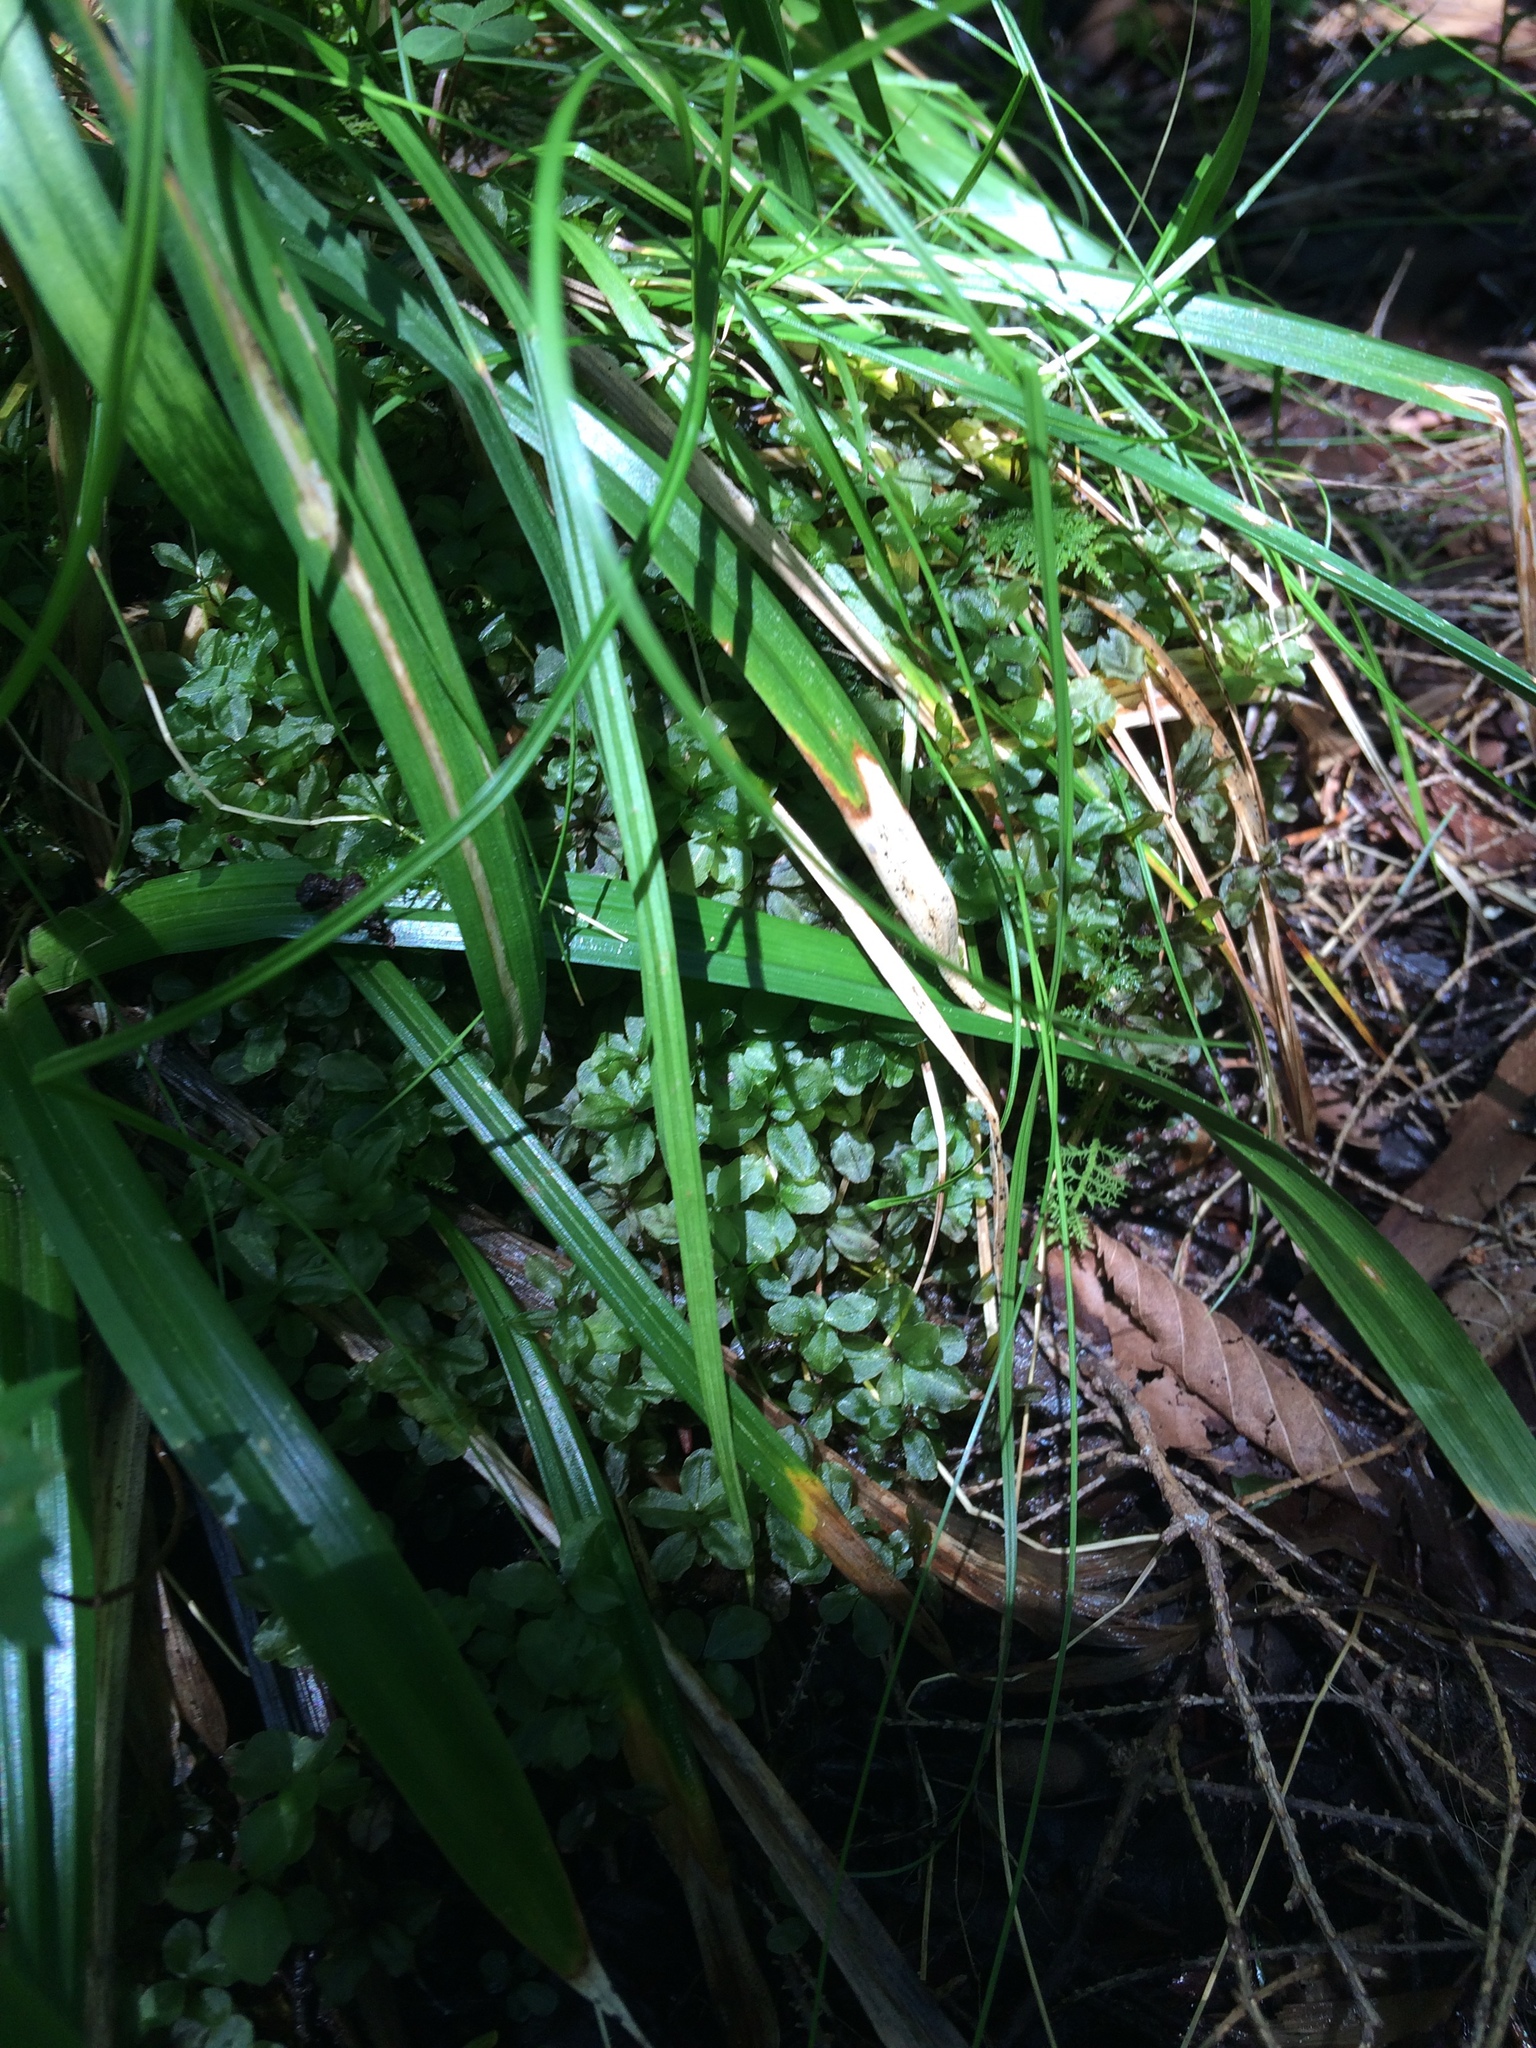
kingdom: Plantae
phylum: Bryophyta
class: Bryopsida
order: Bryales
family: Mniaceae
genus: Rhizomnium
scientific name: Rhizomnium punctatum
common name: Dotted leafy moss
